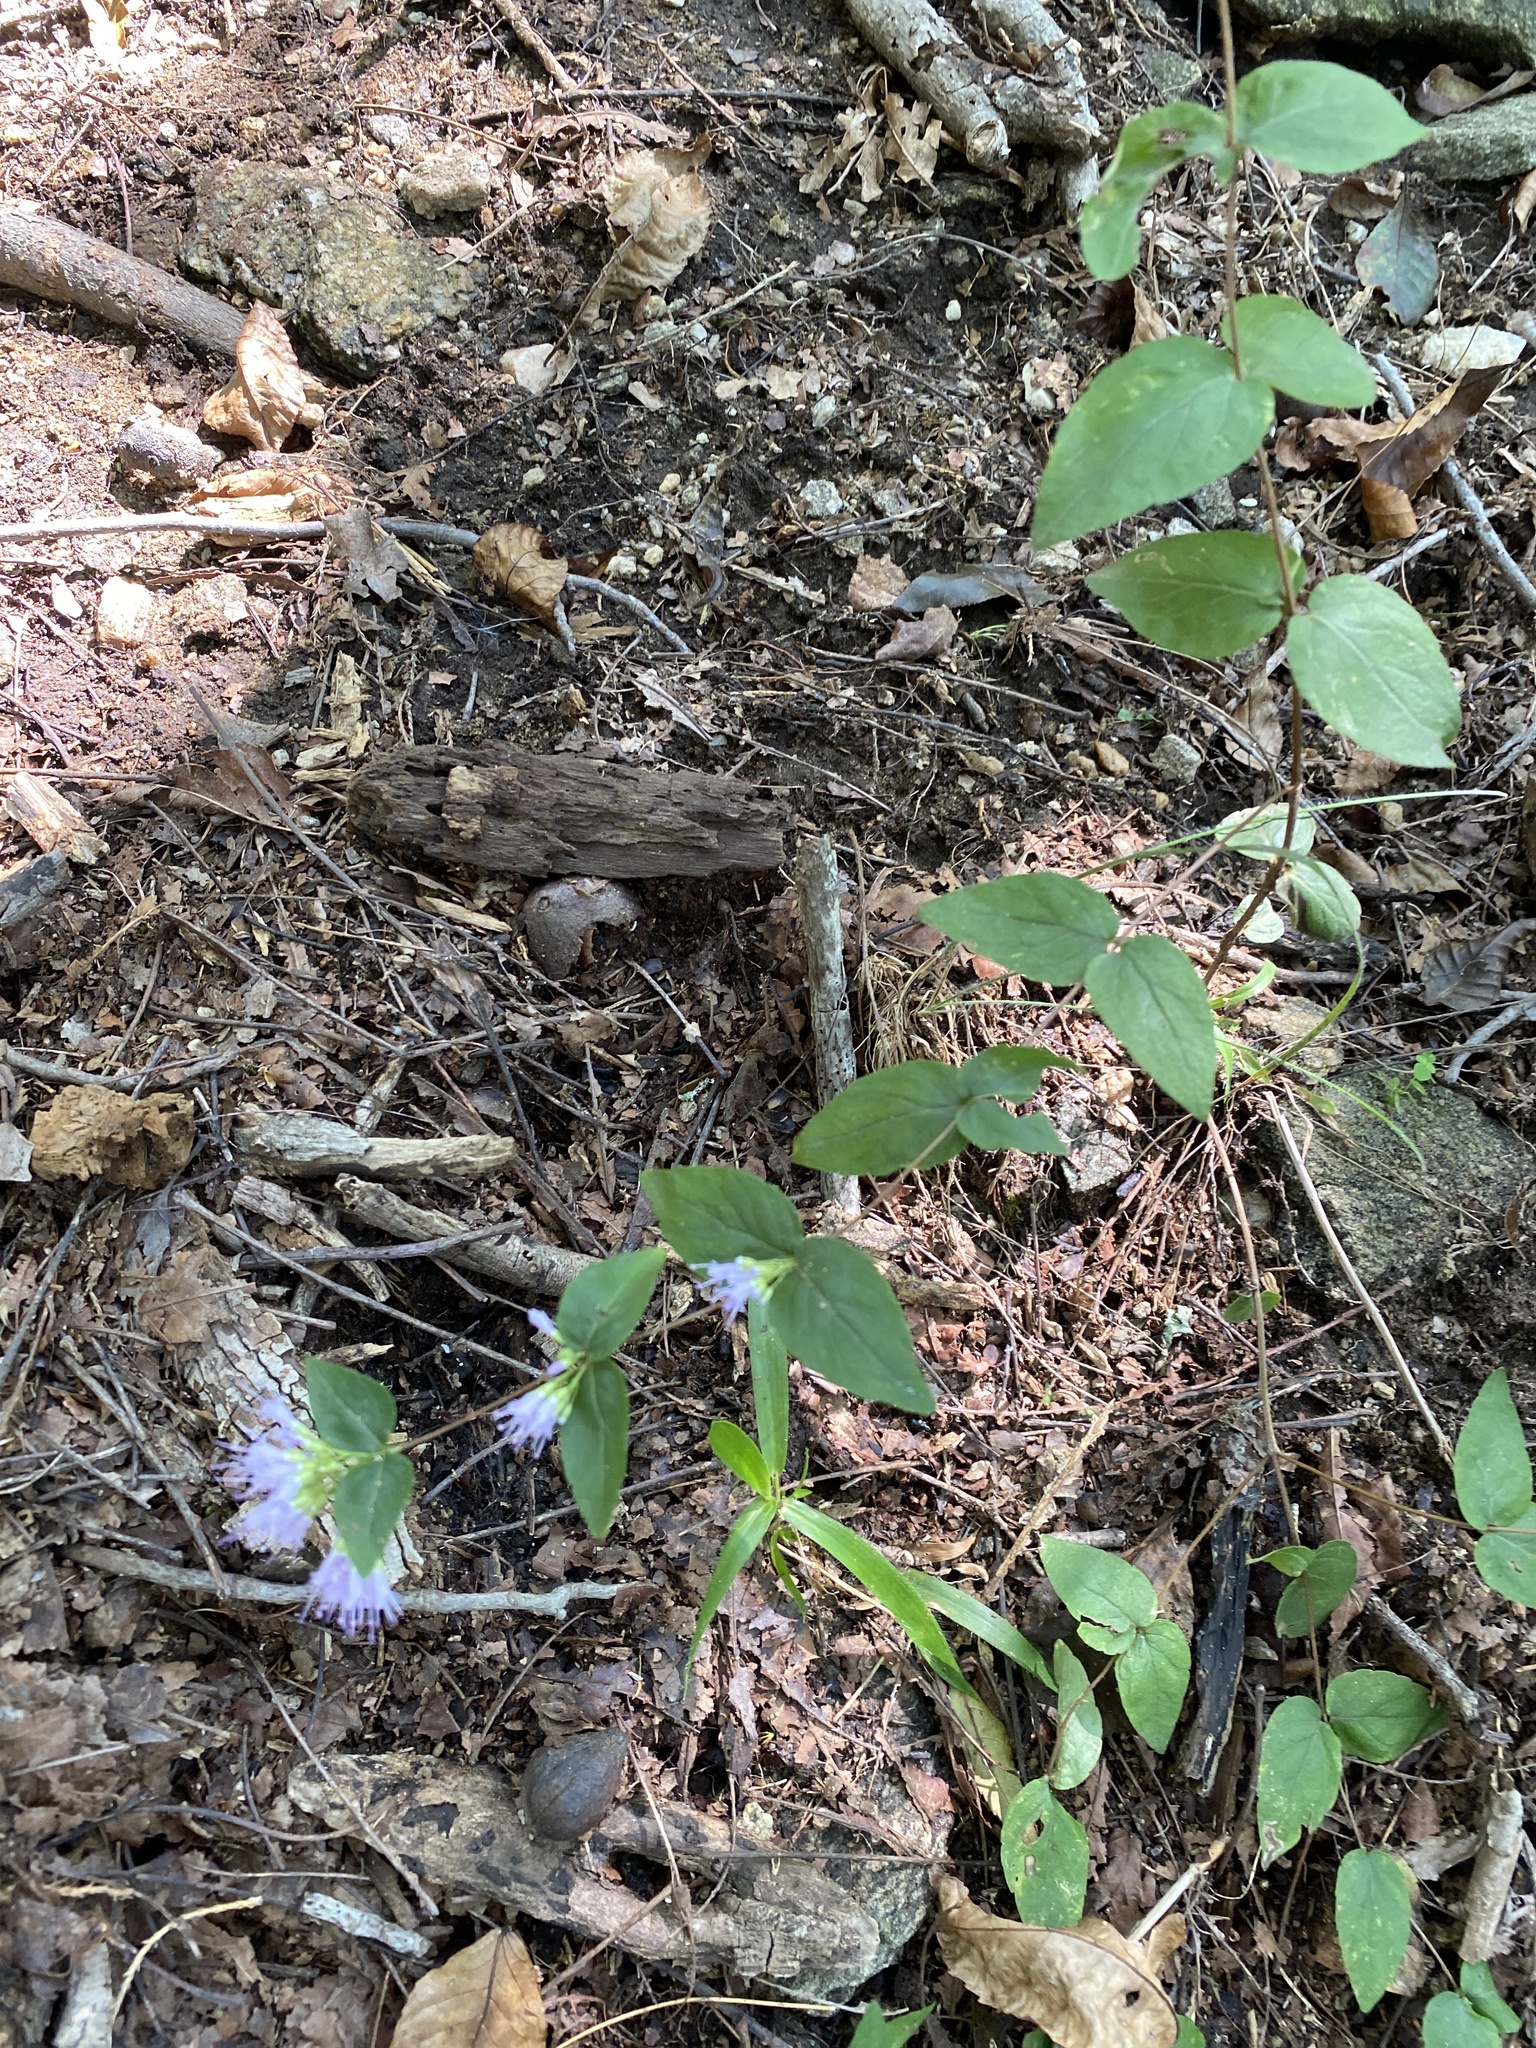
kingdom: Plantae
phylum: Tracheophyta
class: Magnoliopsida
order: Lamiales
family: Lamiaceae
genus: Cunila
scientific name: Cunila origanoides
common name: American dittany
